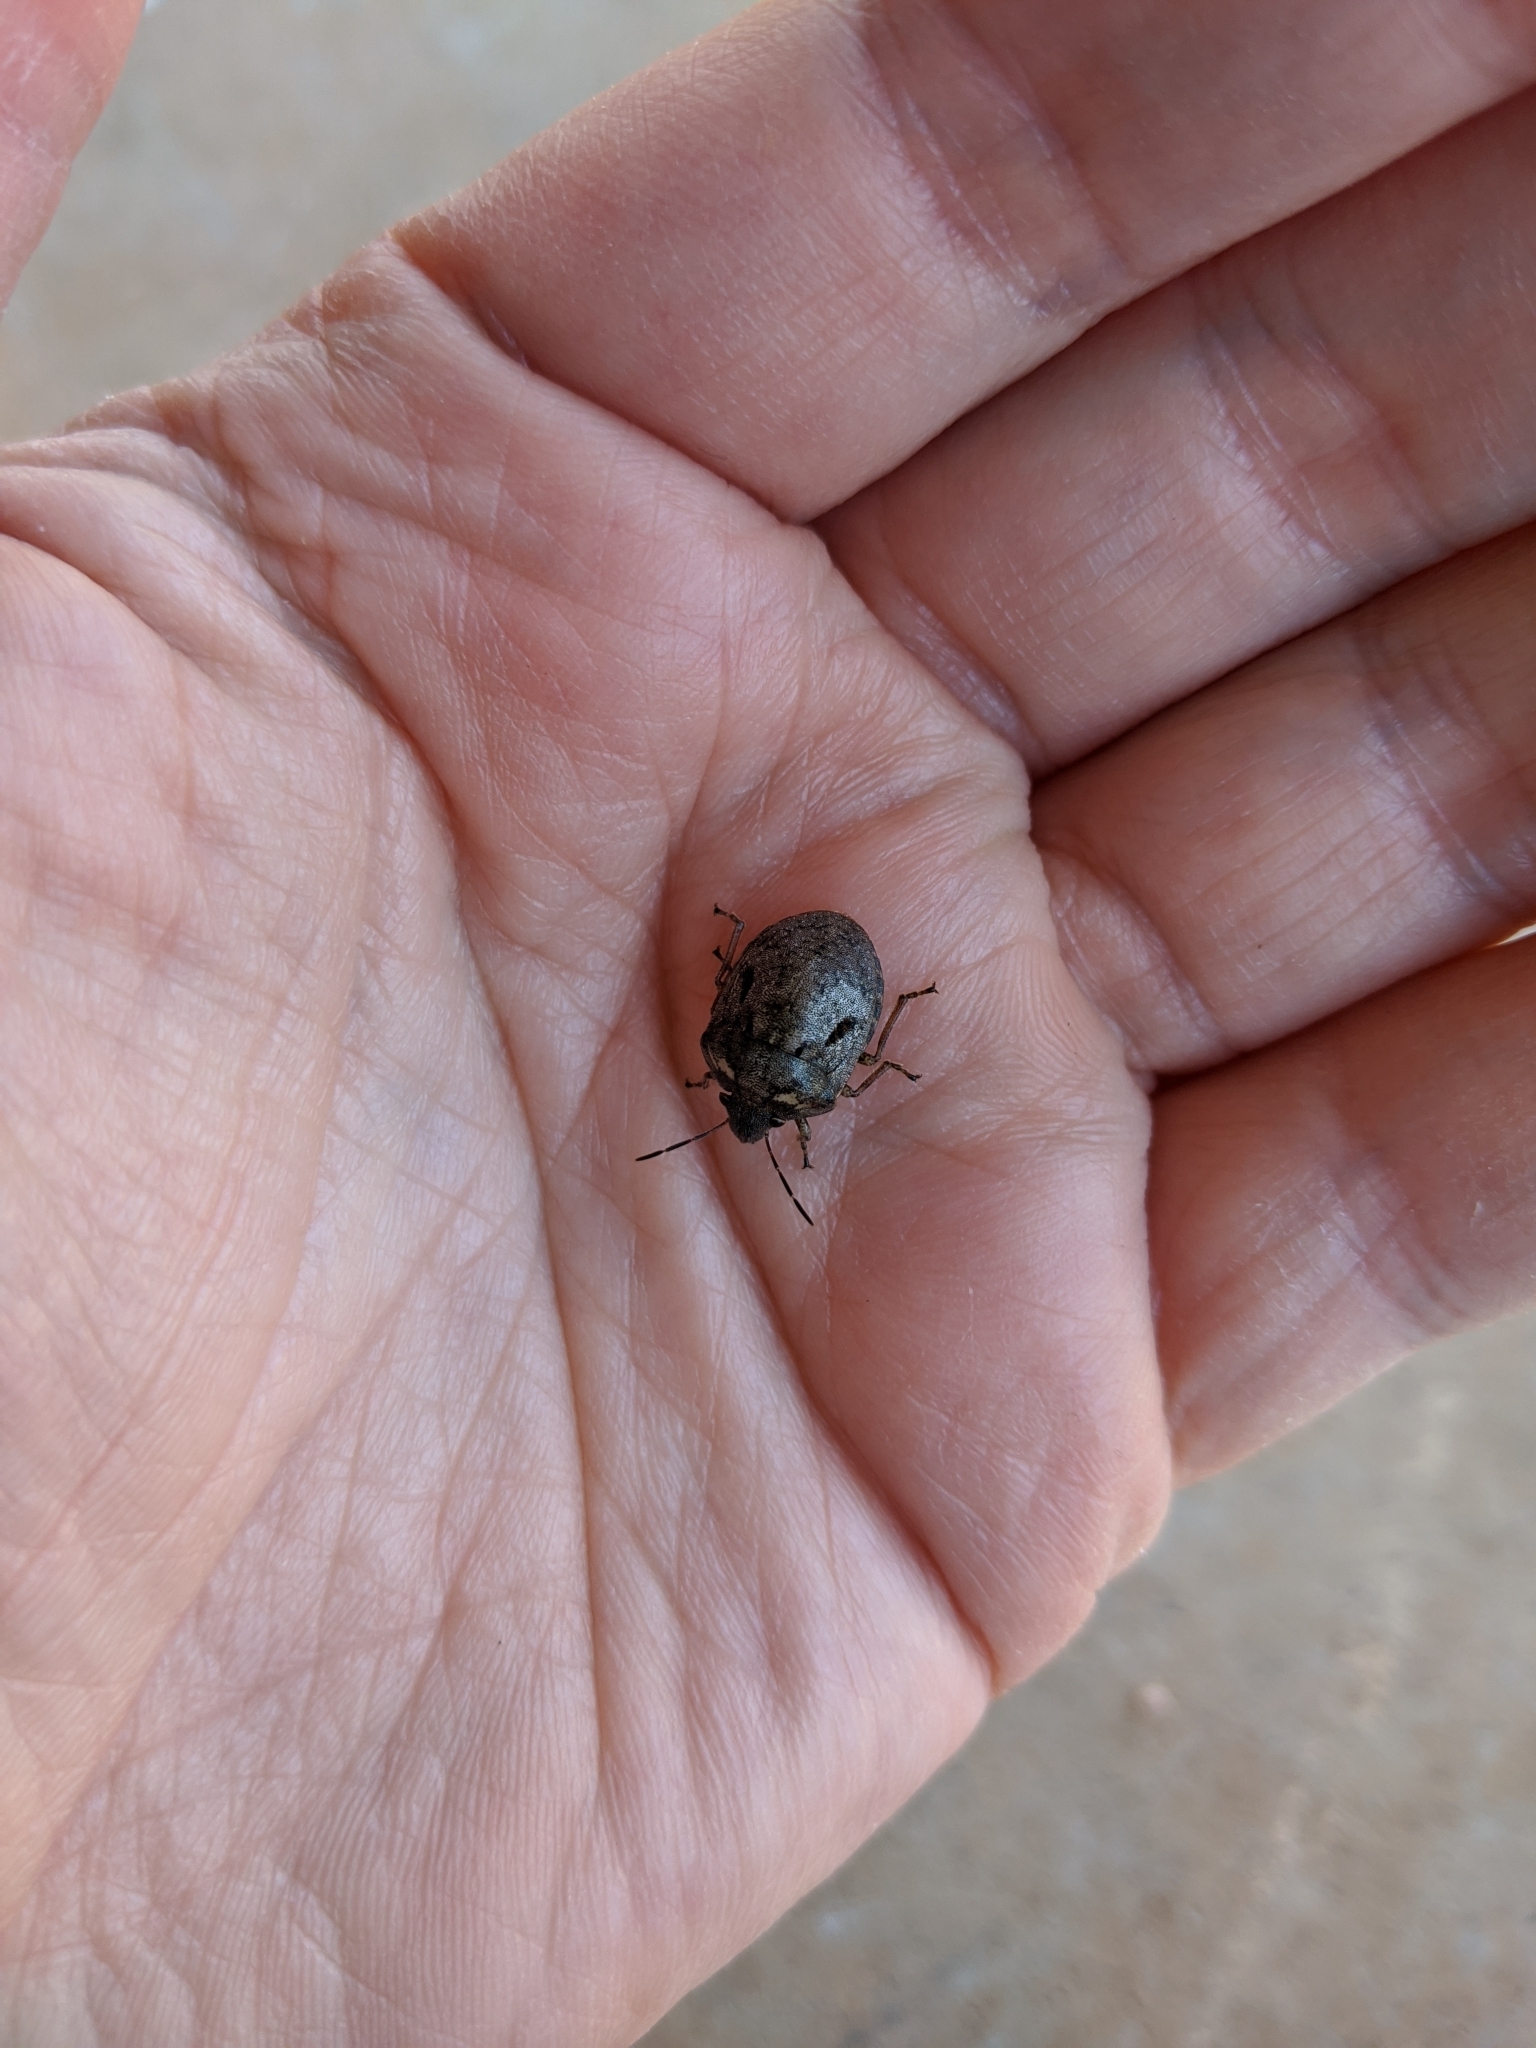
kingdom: Animalia
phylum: Arthropoda
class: Insecta
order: Hemiptera
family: Scutelleridae
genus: Tetyra
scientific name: Tetyra robusta
